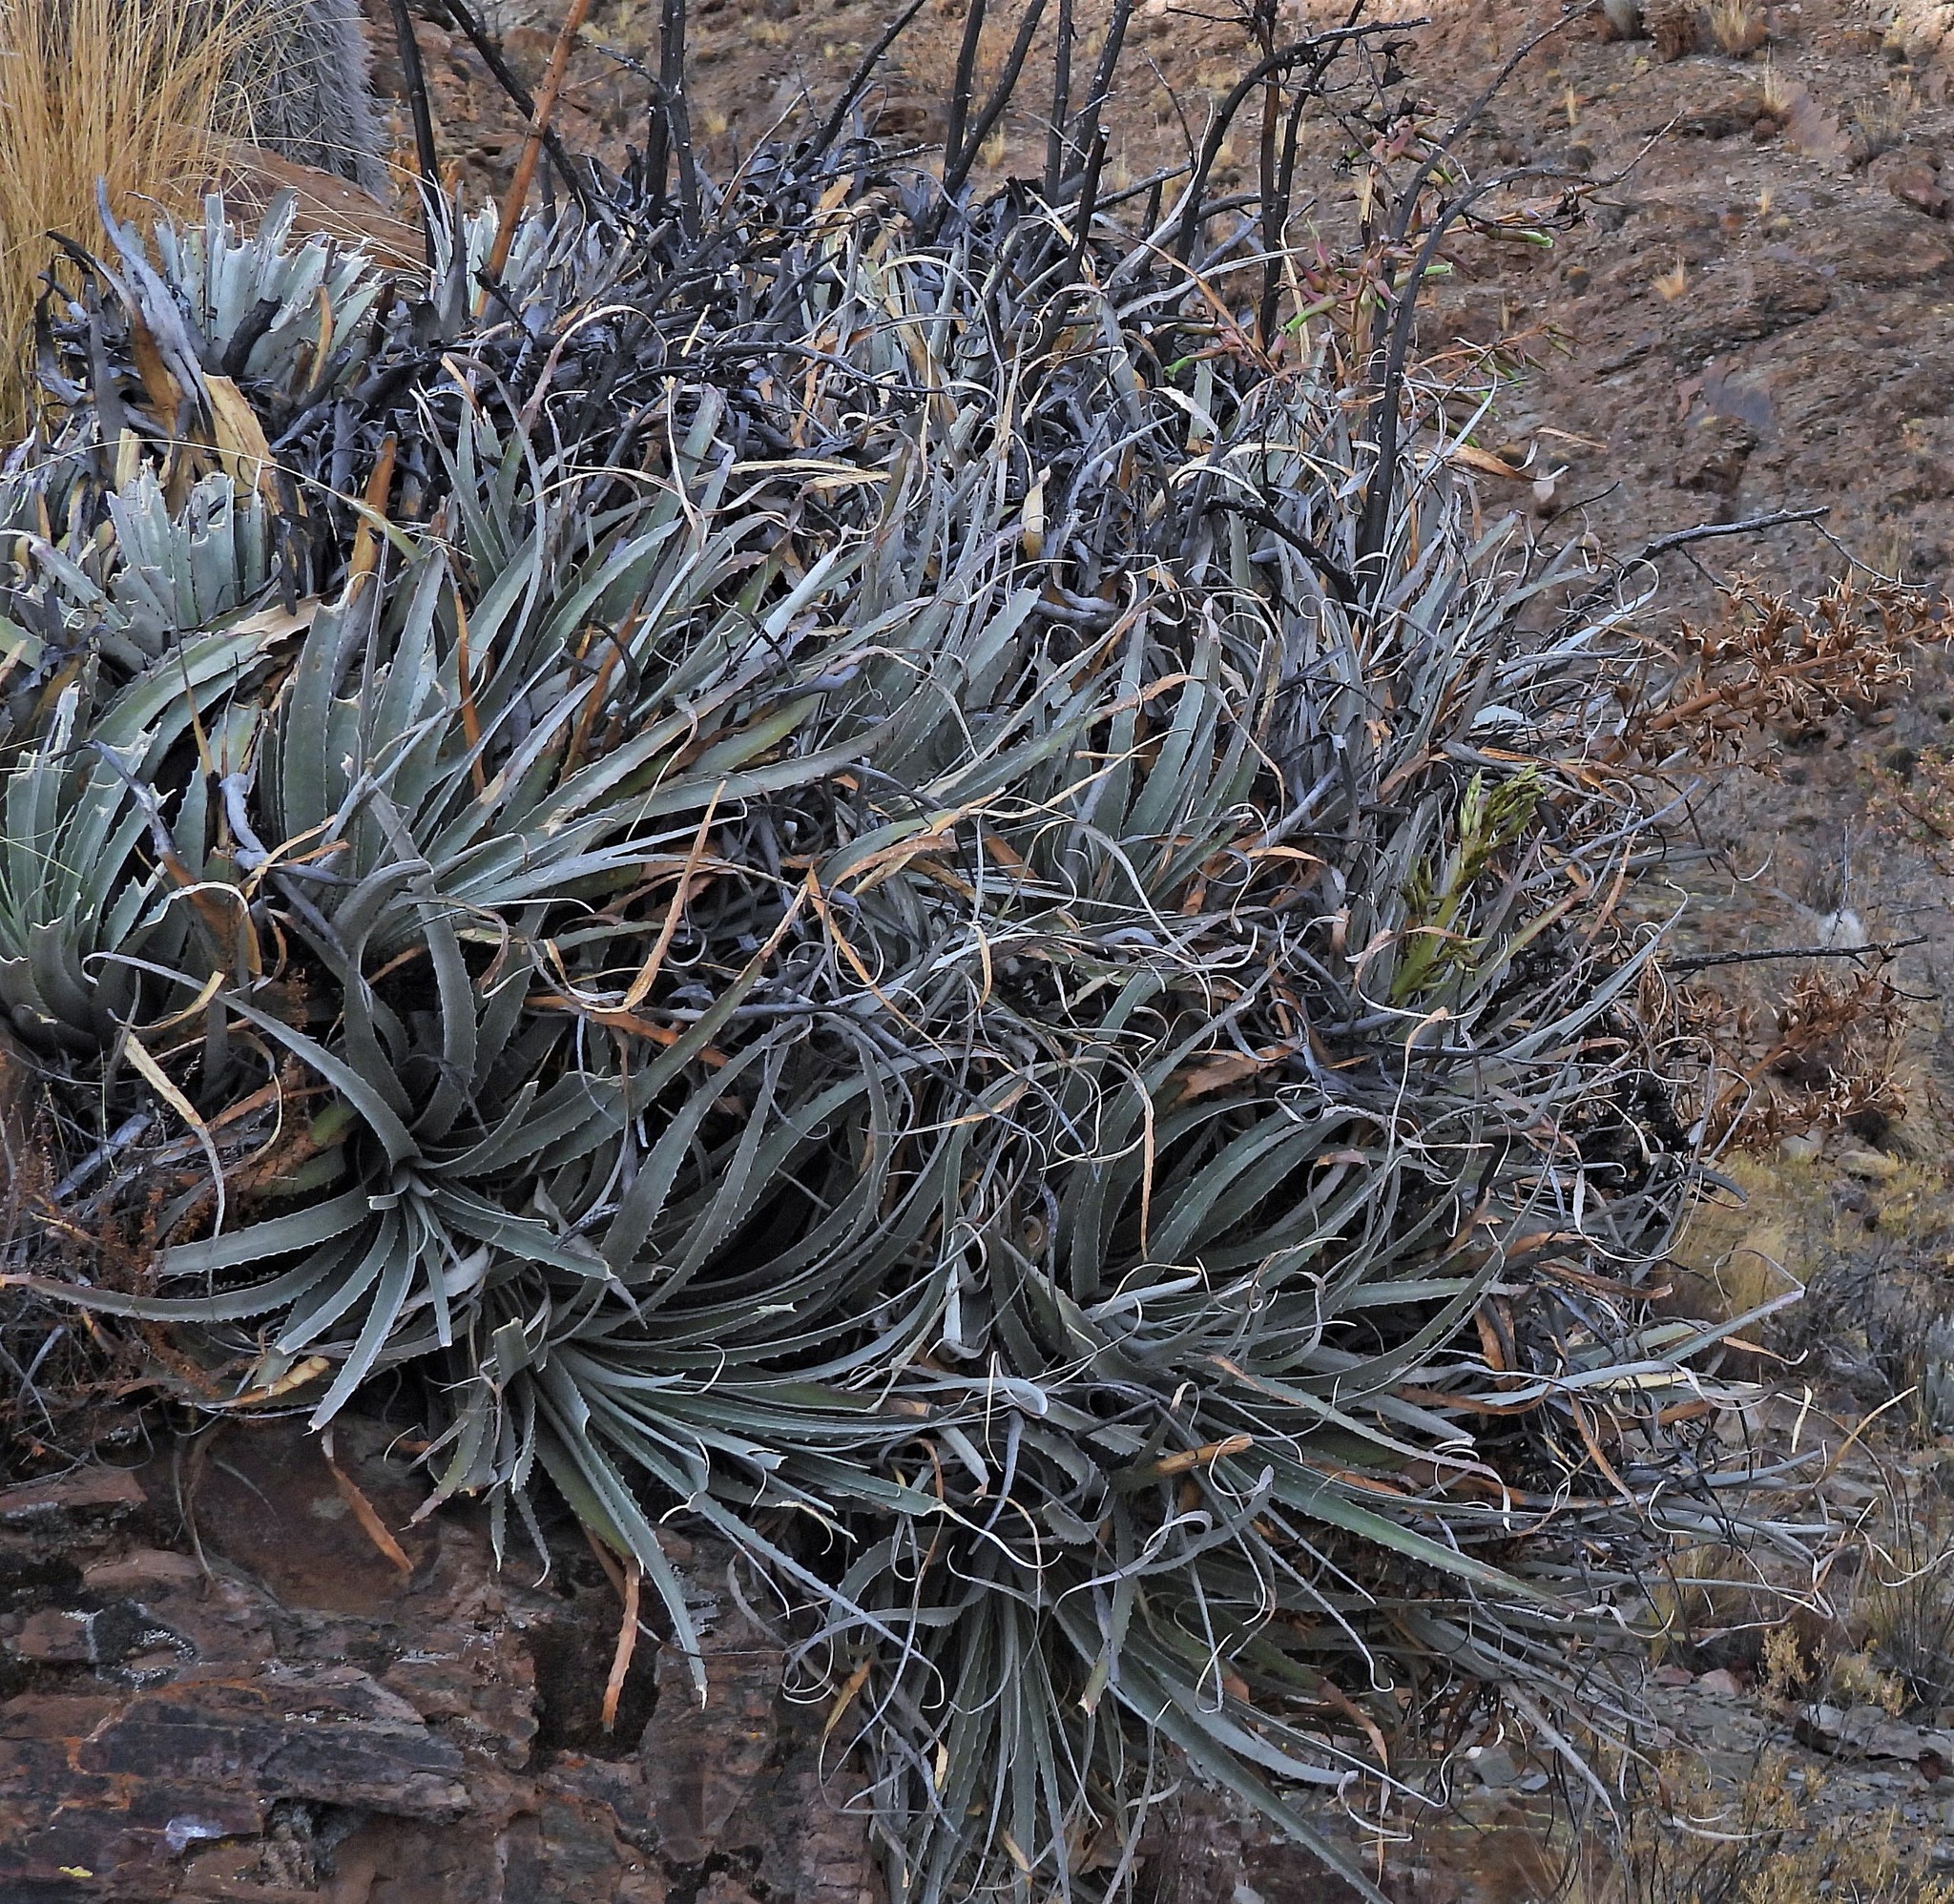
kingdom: Plantae
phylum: Tracheophyta
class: Liliopsida
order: Poales
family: Bromeliaceae
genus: Puya
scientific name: Puya hofstenii
